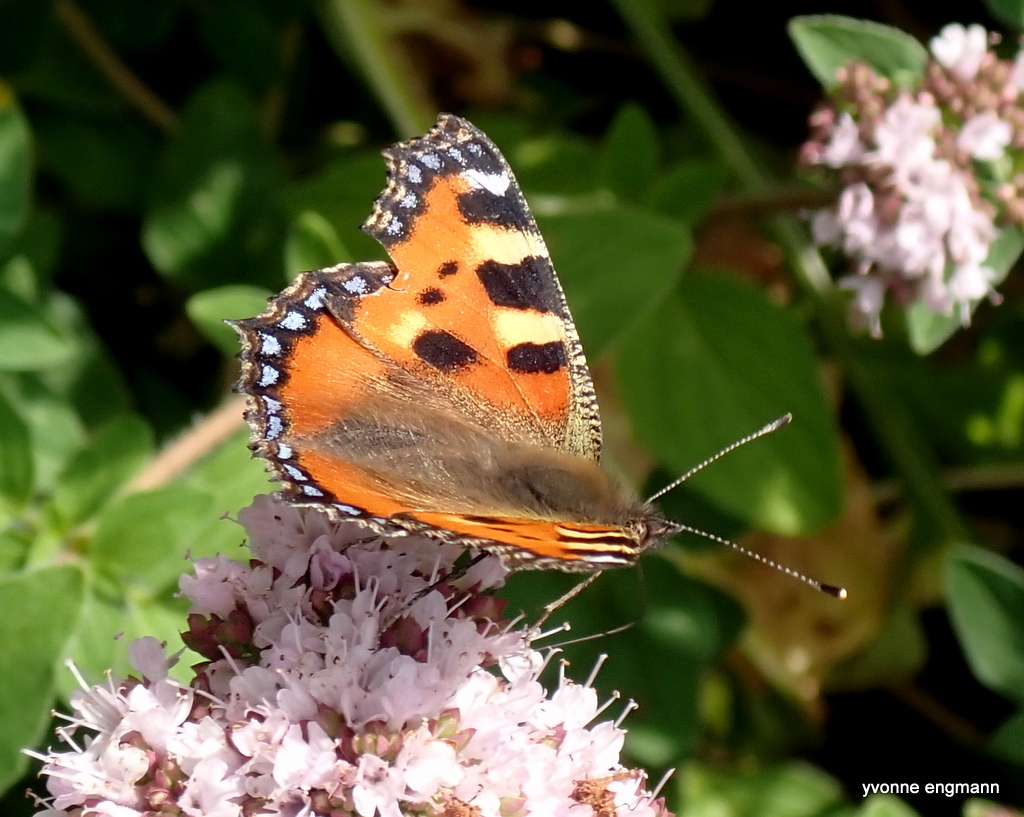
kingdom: Animalia
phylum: Arthropoda
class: Insecta
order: Lepidoptera
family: Nymphalidae
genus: Aglais
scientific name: Aglais urticae
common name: Small tortoiseshell
